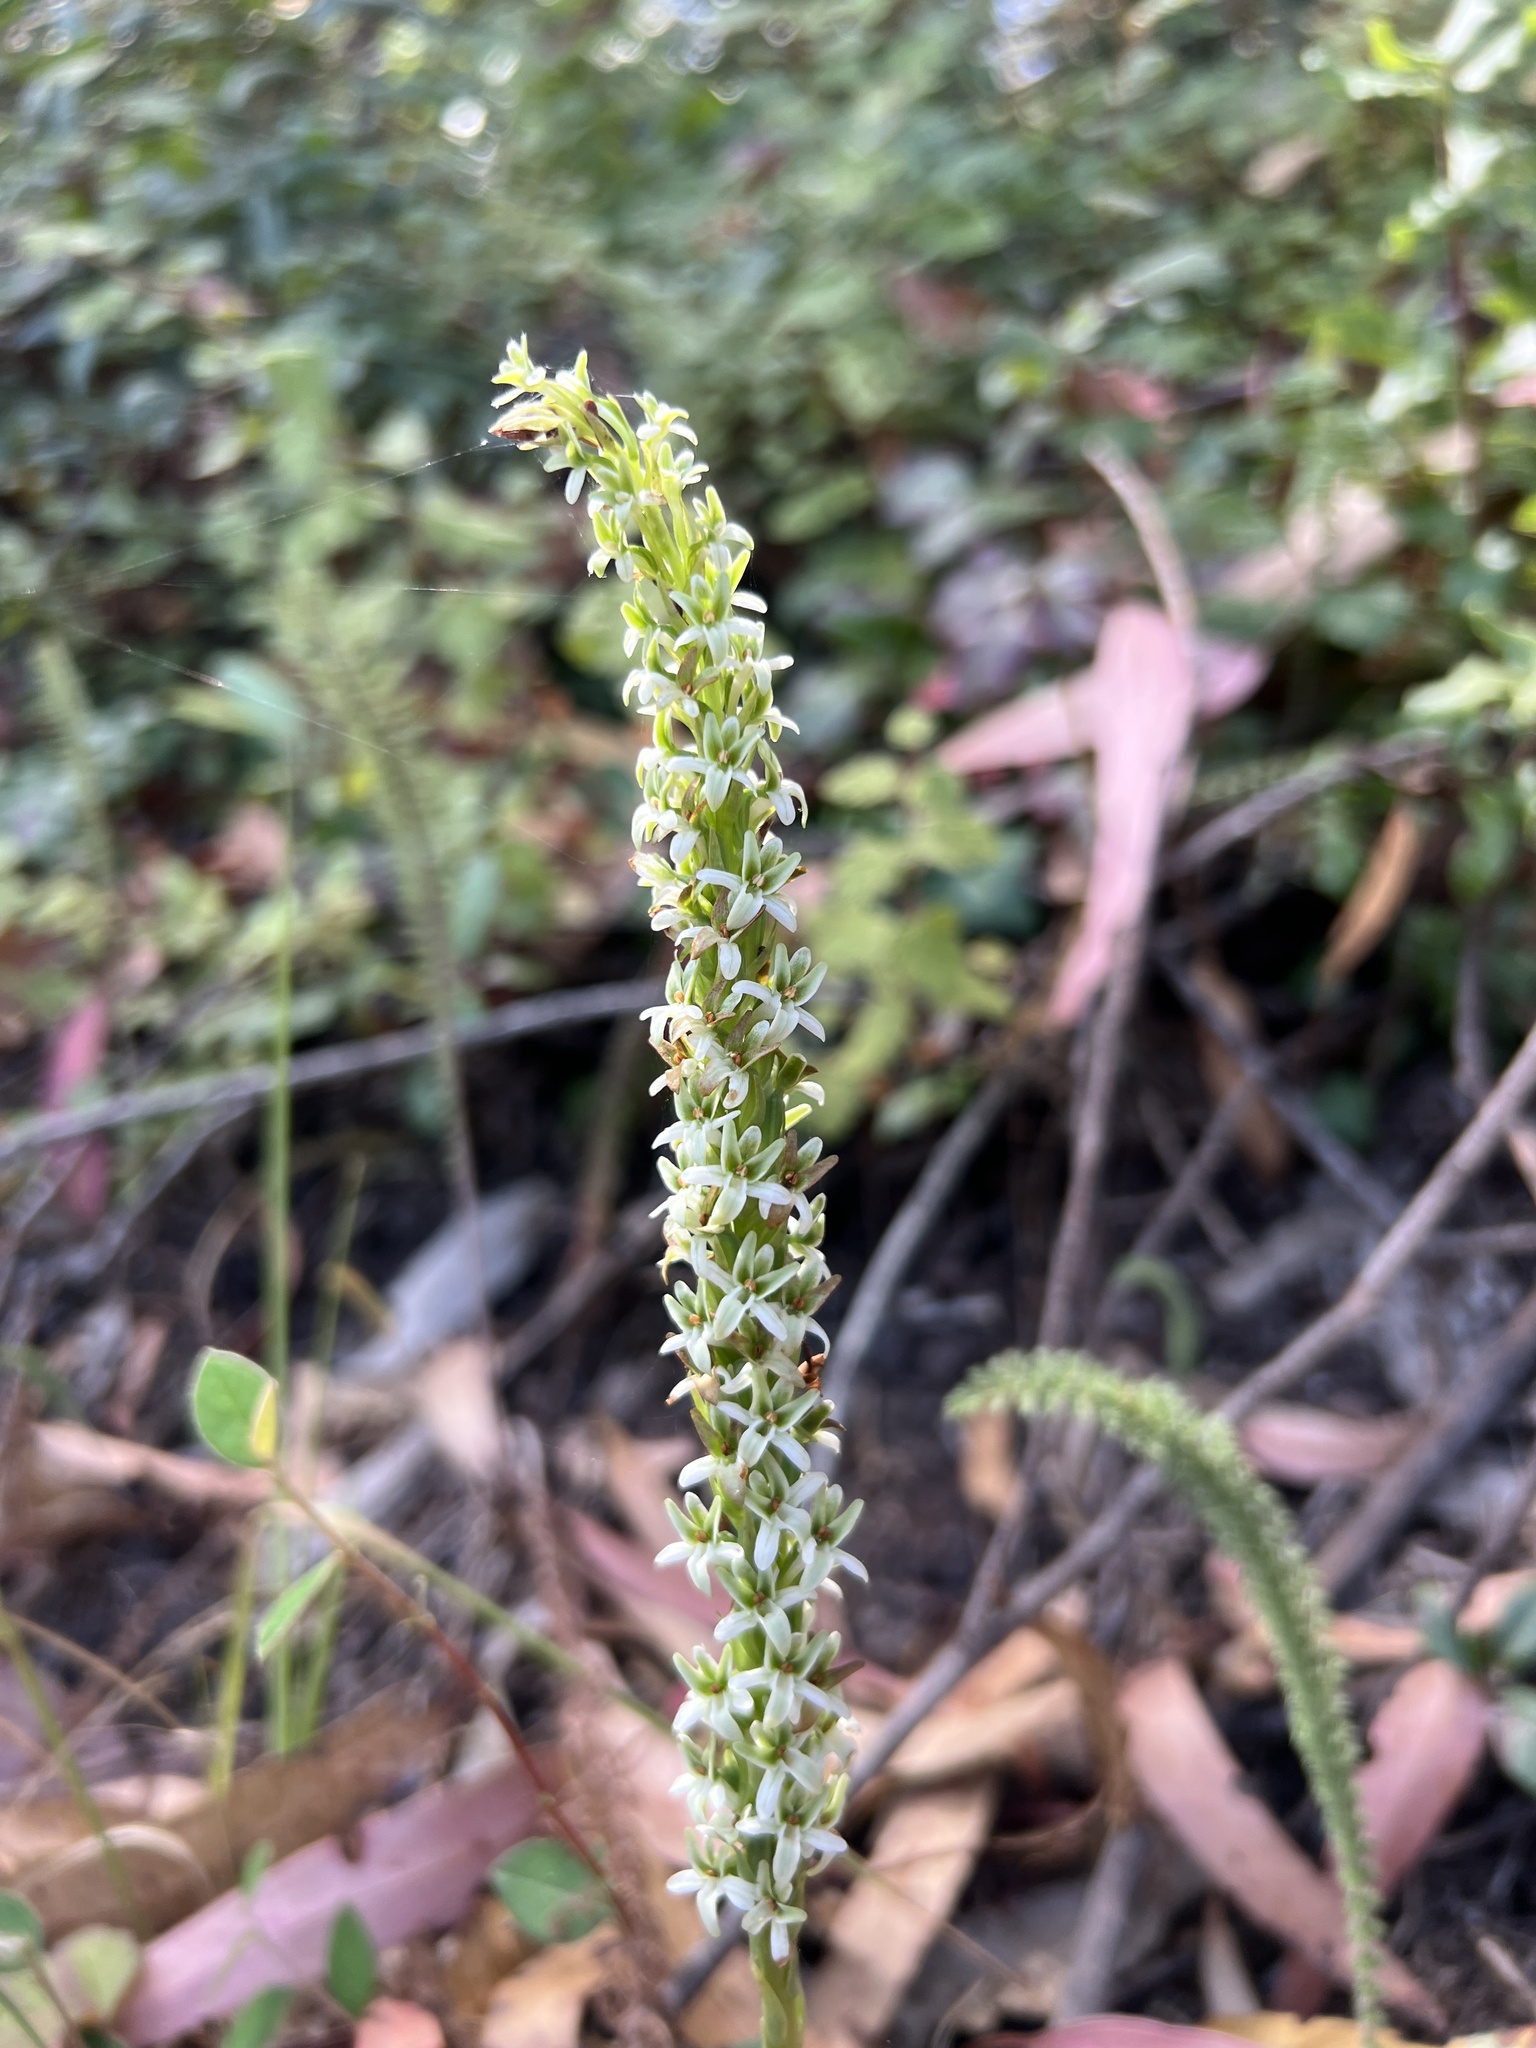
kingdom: Plantae
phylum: Tracheophyta
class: Liliopsida
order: Asparagales
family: Orchidaceae
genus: Platanthera
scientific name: Platanthera elegans
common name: Coast piperia
